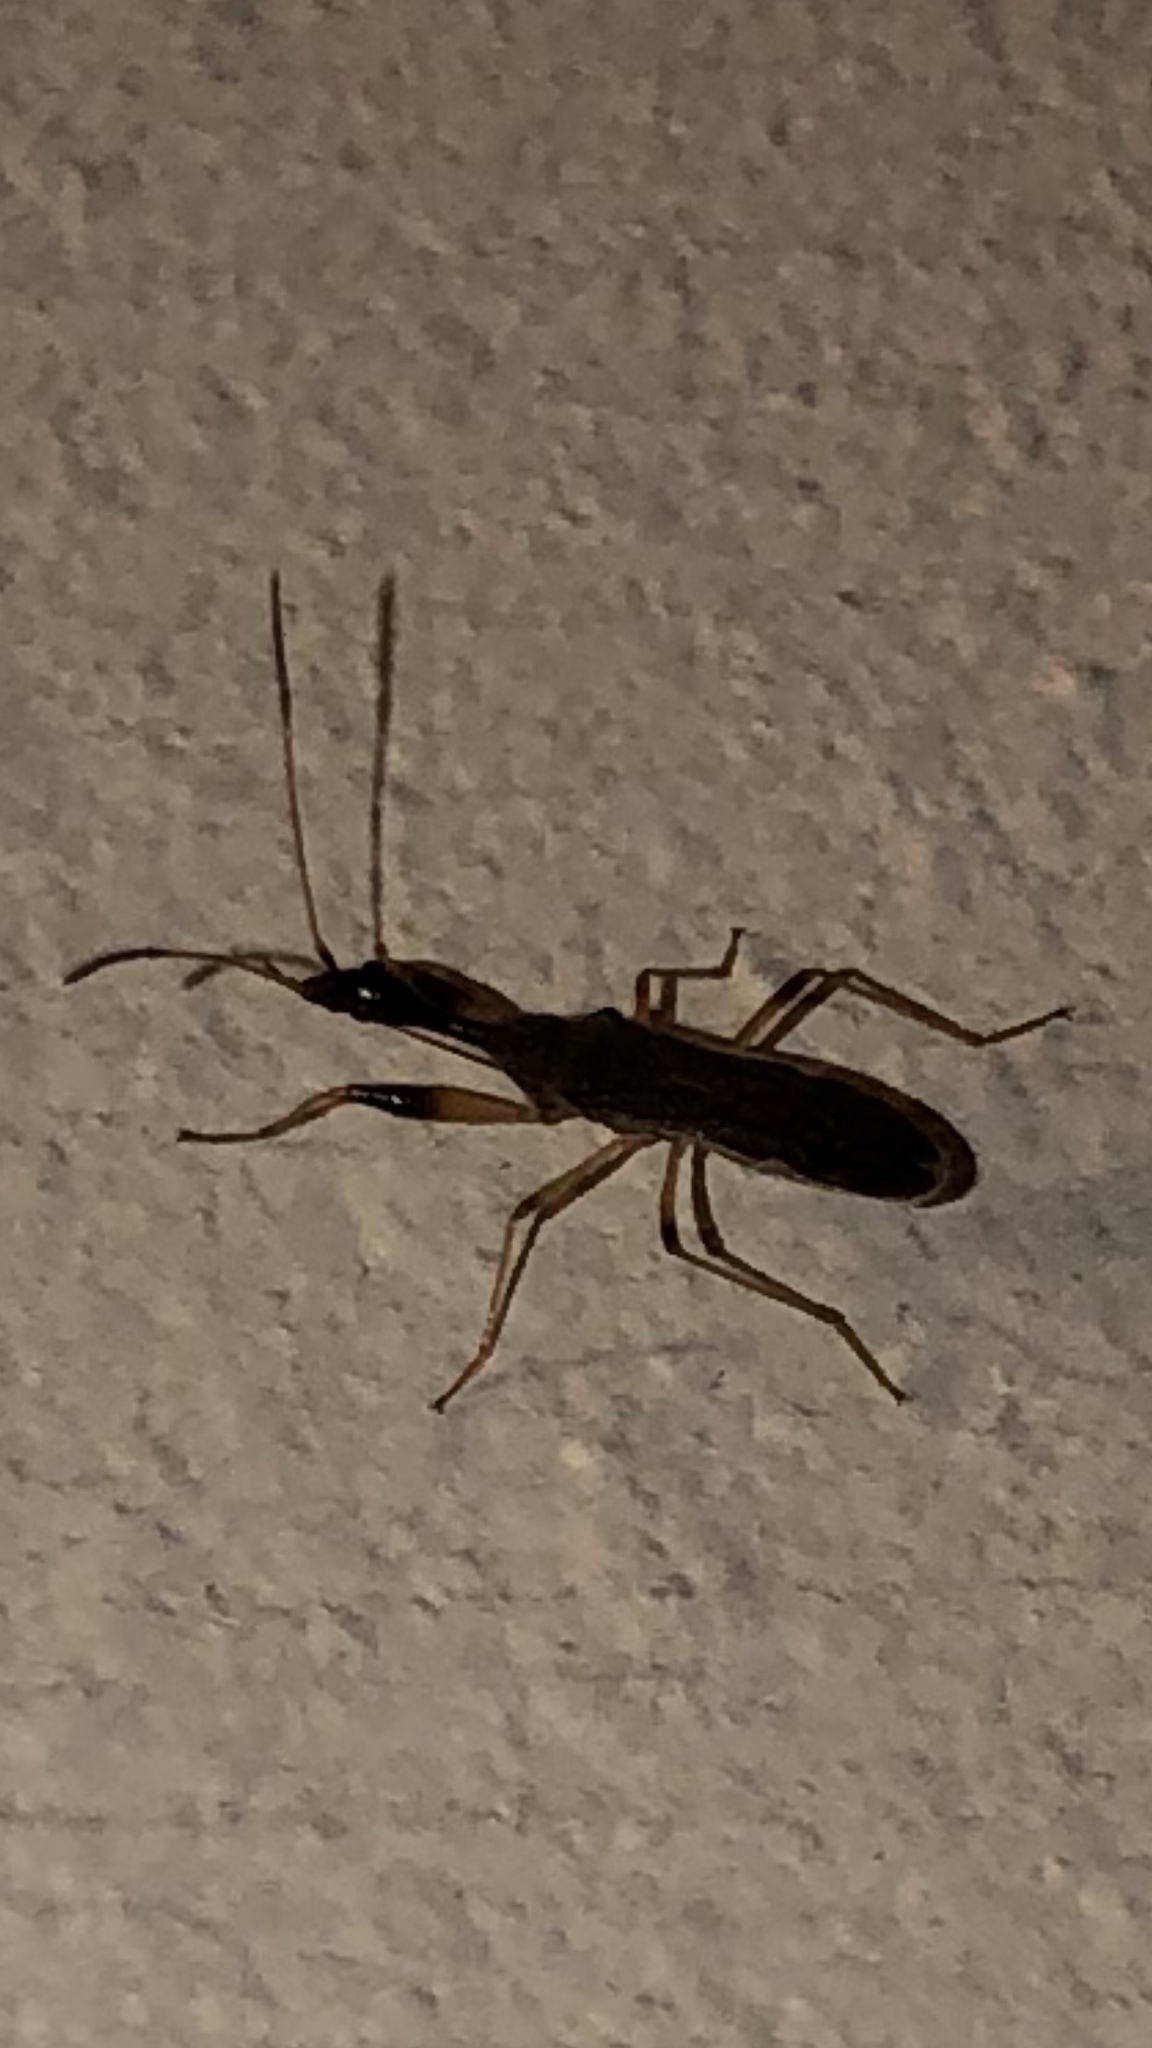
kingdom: Animalia
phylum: Arthropoda
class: Insecta
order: Hemiptera
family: Rhyparochromidae
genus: Myodocha
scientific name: Myodocha serripes
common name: Long-necked seed bug
